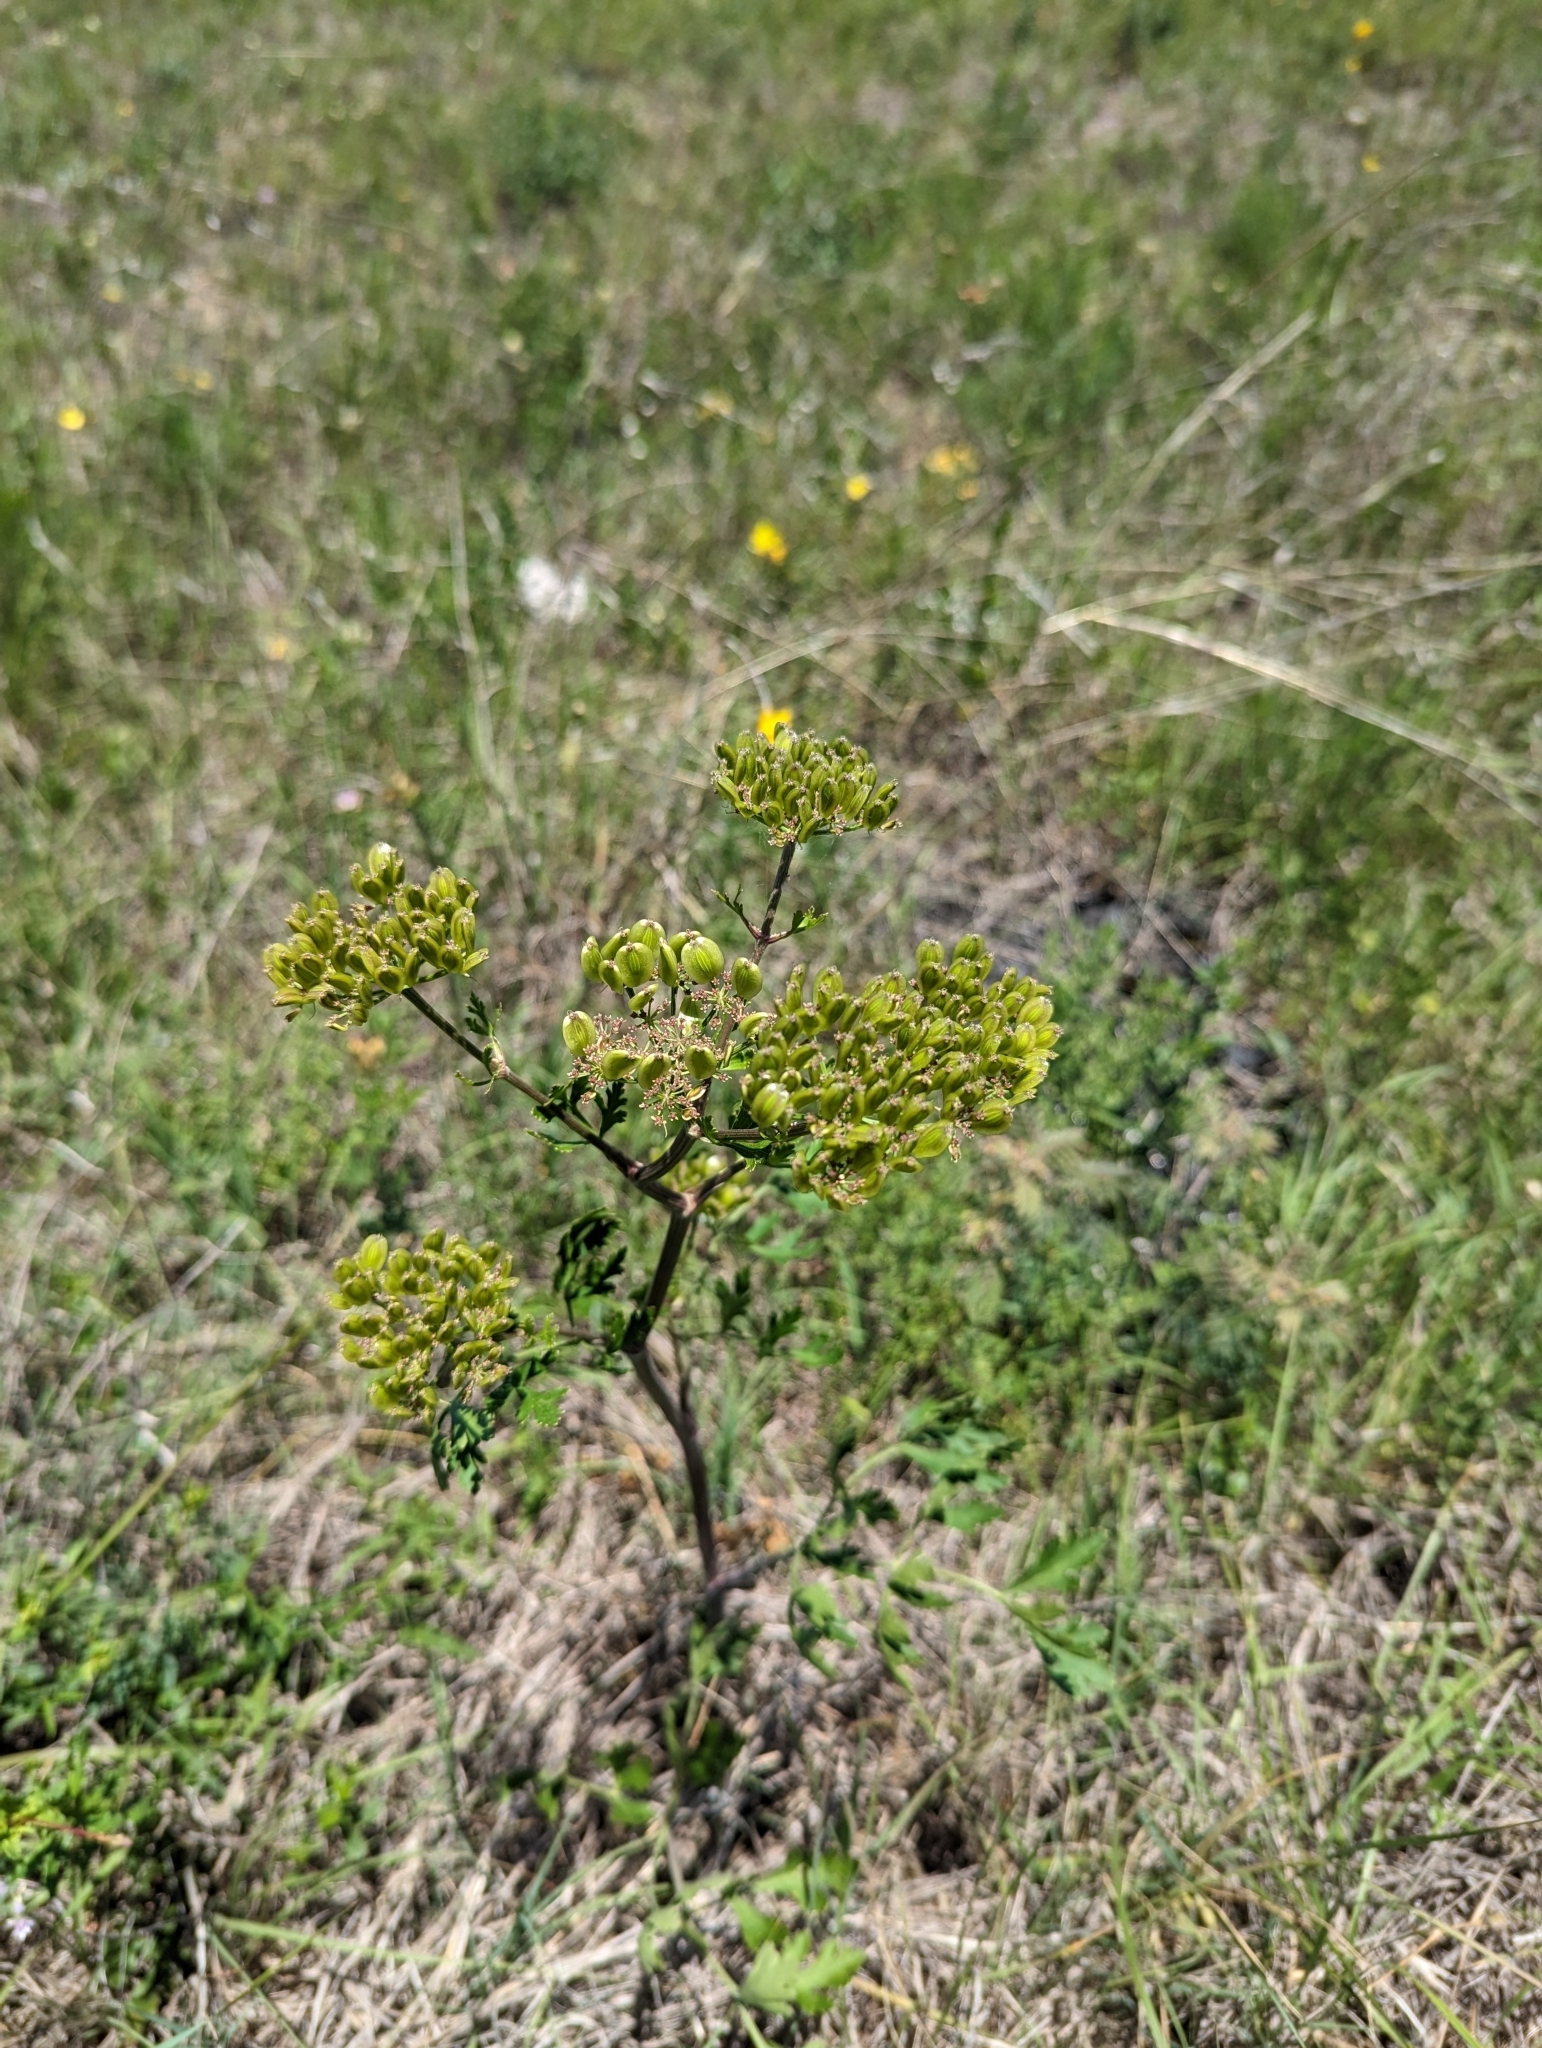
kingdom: Plantae
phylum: Tracheophyta
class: Magnoliopsida
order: Apiales
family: Apiaceae
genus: Polytaenia
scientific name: Polytaenia texana
